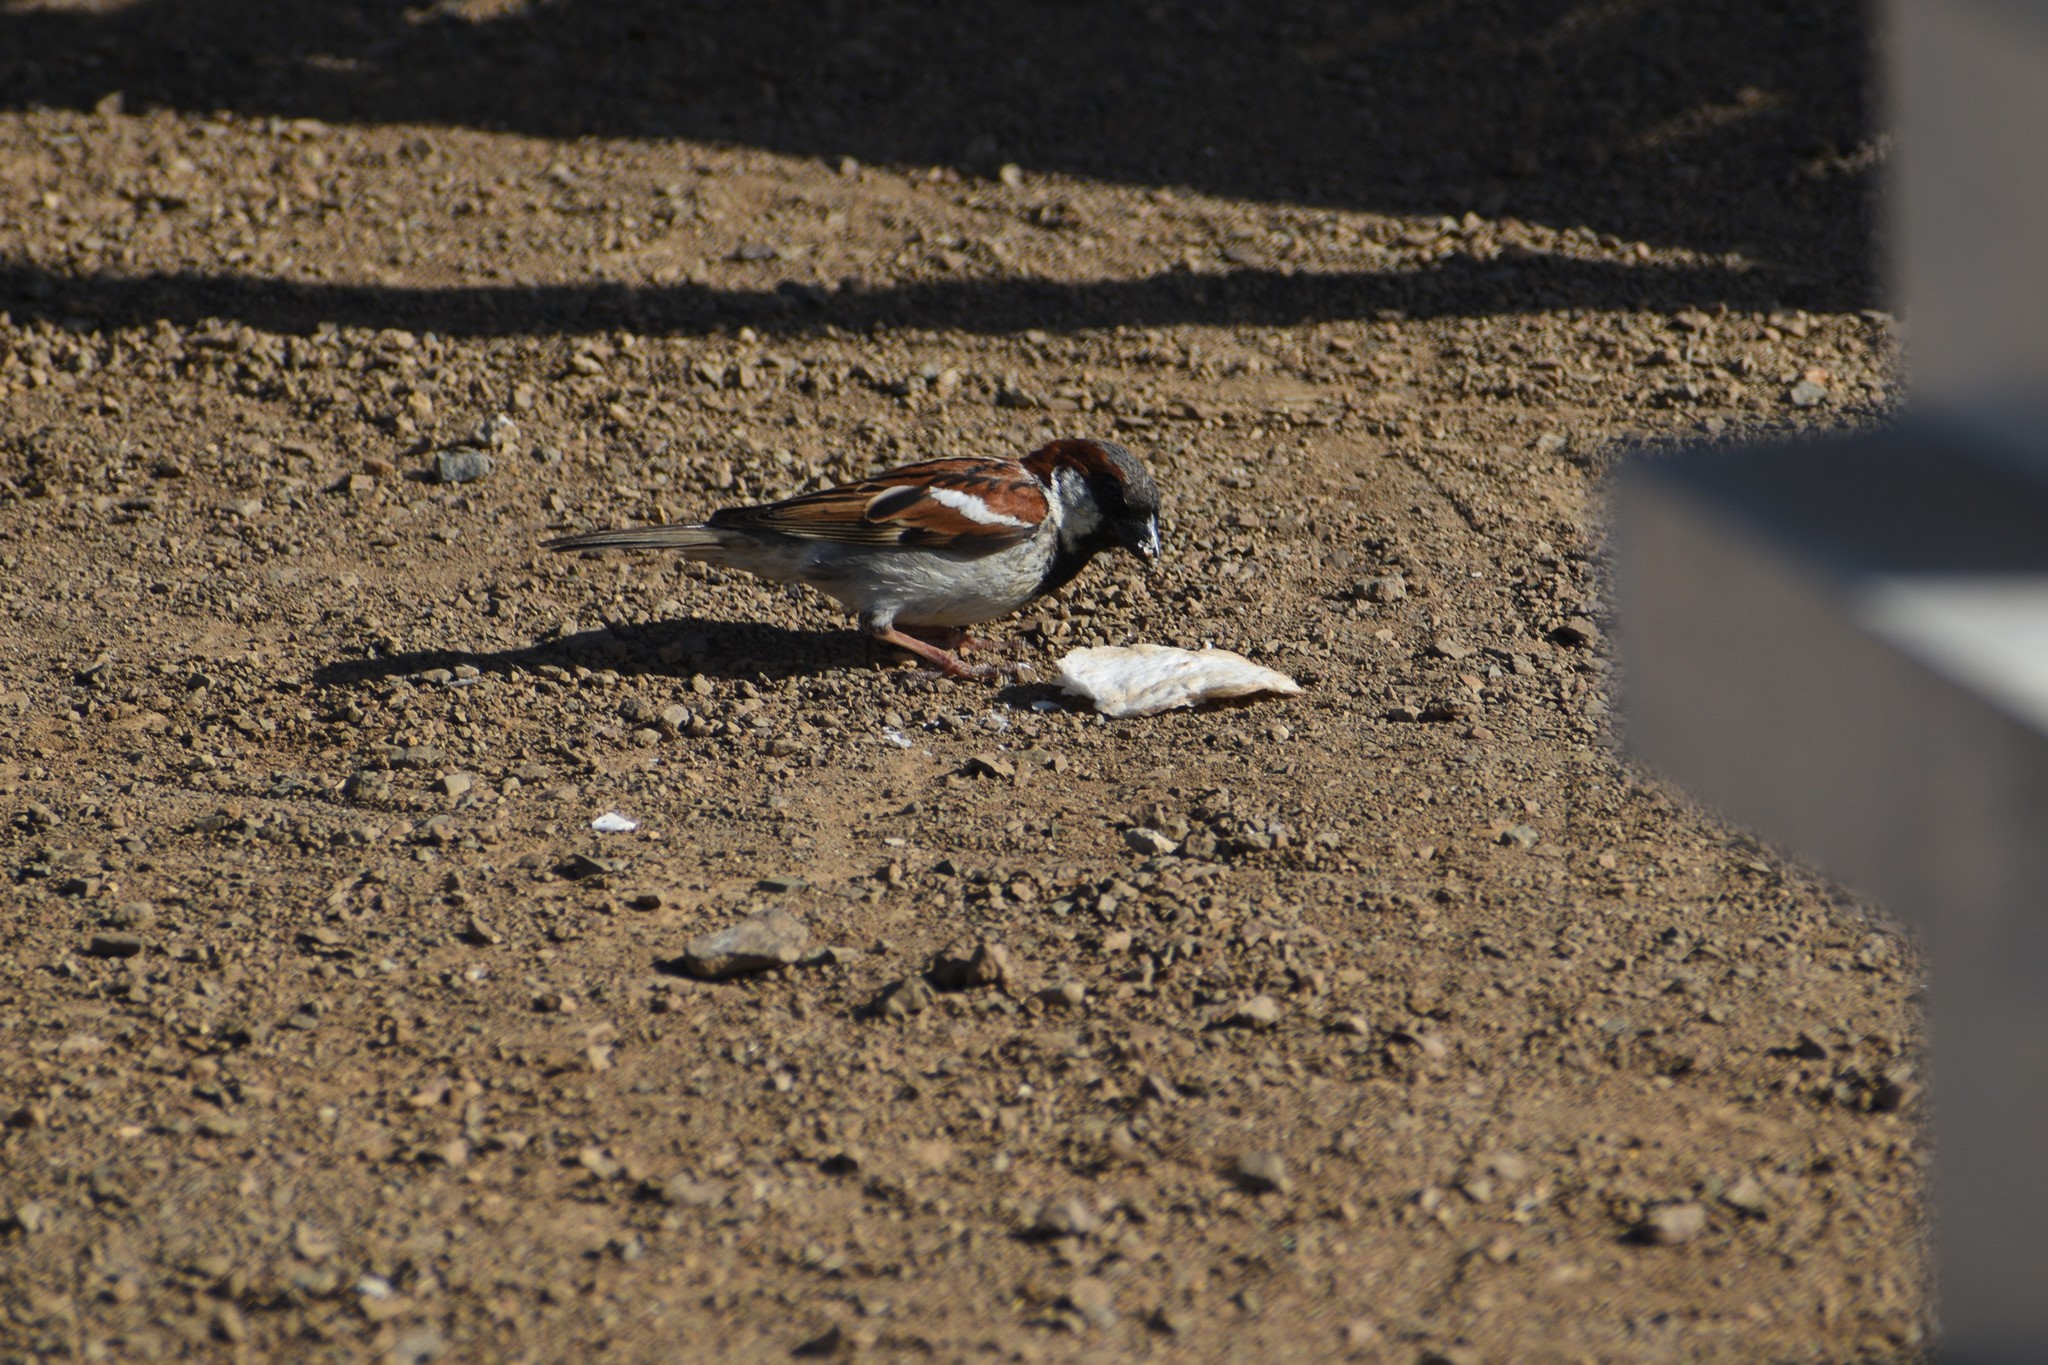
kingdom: Animalia
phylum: Chordata
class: Aves
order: Passeriformes
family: Passeridae
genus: Passer
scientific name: Passer domesticus
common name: House sparrow
